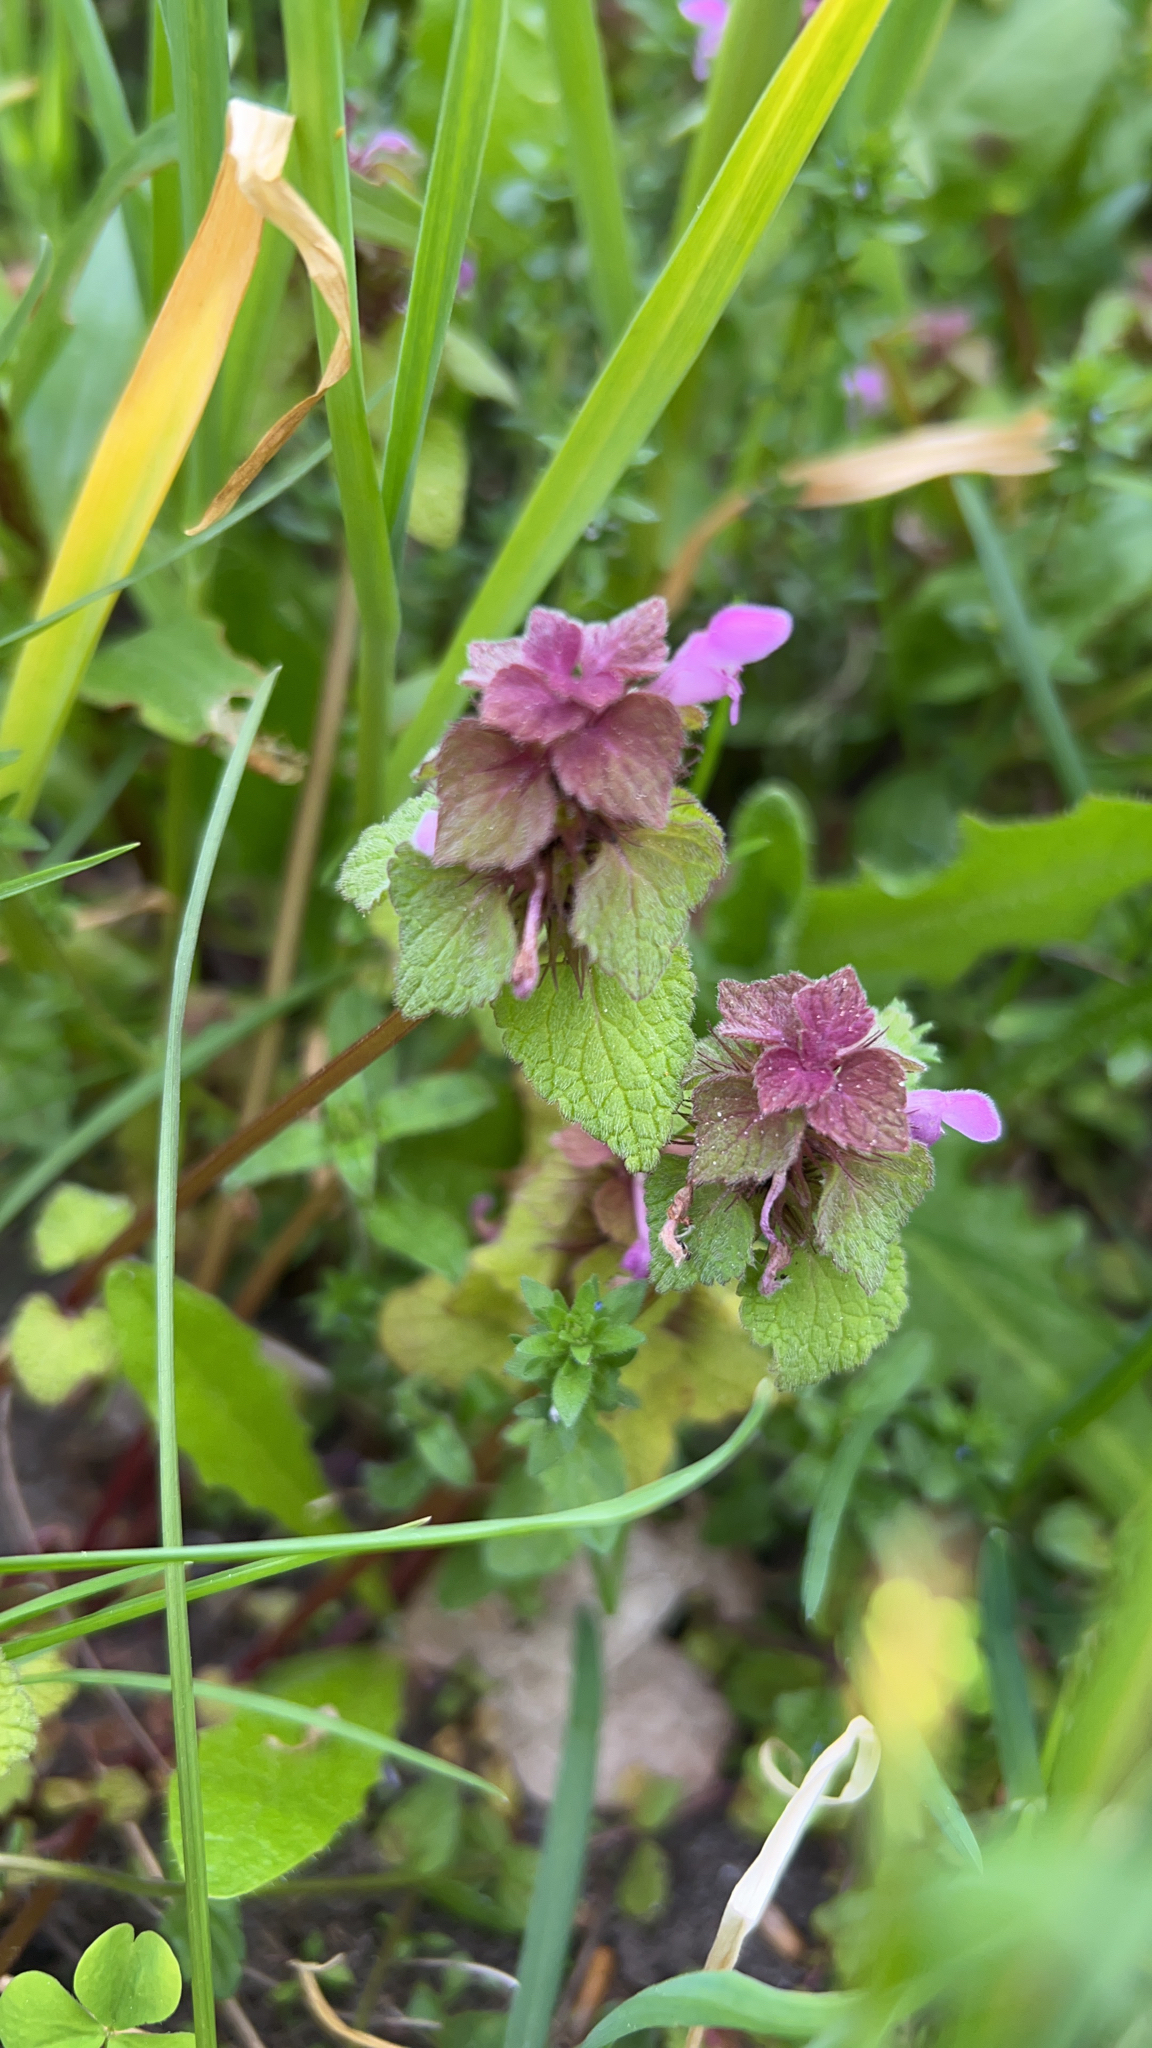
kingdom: Plantae
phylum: Tracheophyta
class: Magnoliopsida
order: Lamiales
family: Lamiaceae
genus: Lamium
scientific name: Lamium purpureum
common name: Red dead-nettle
